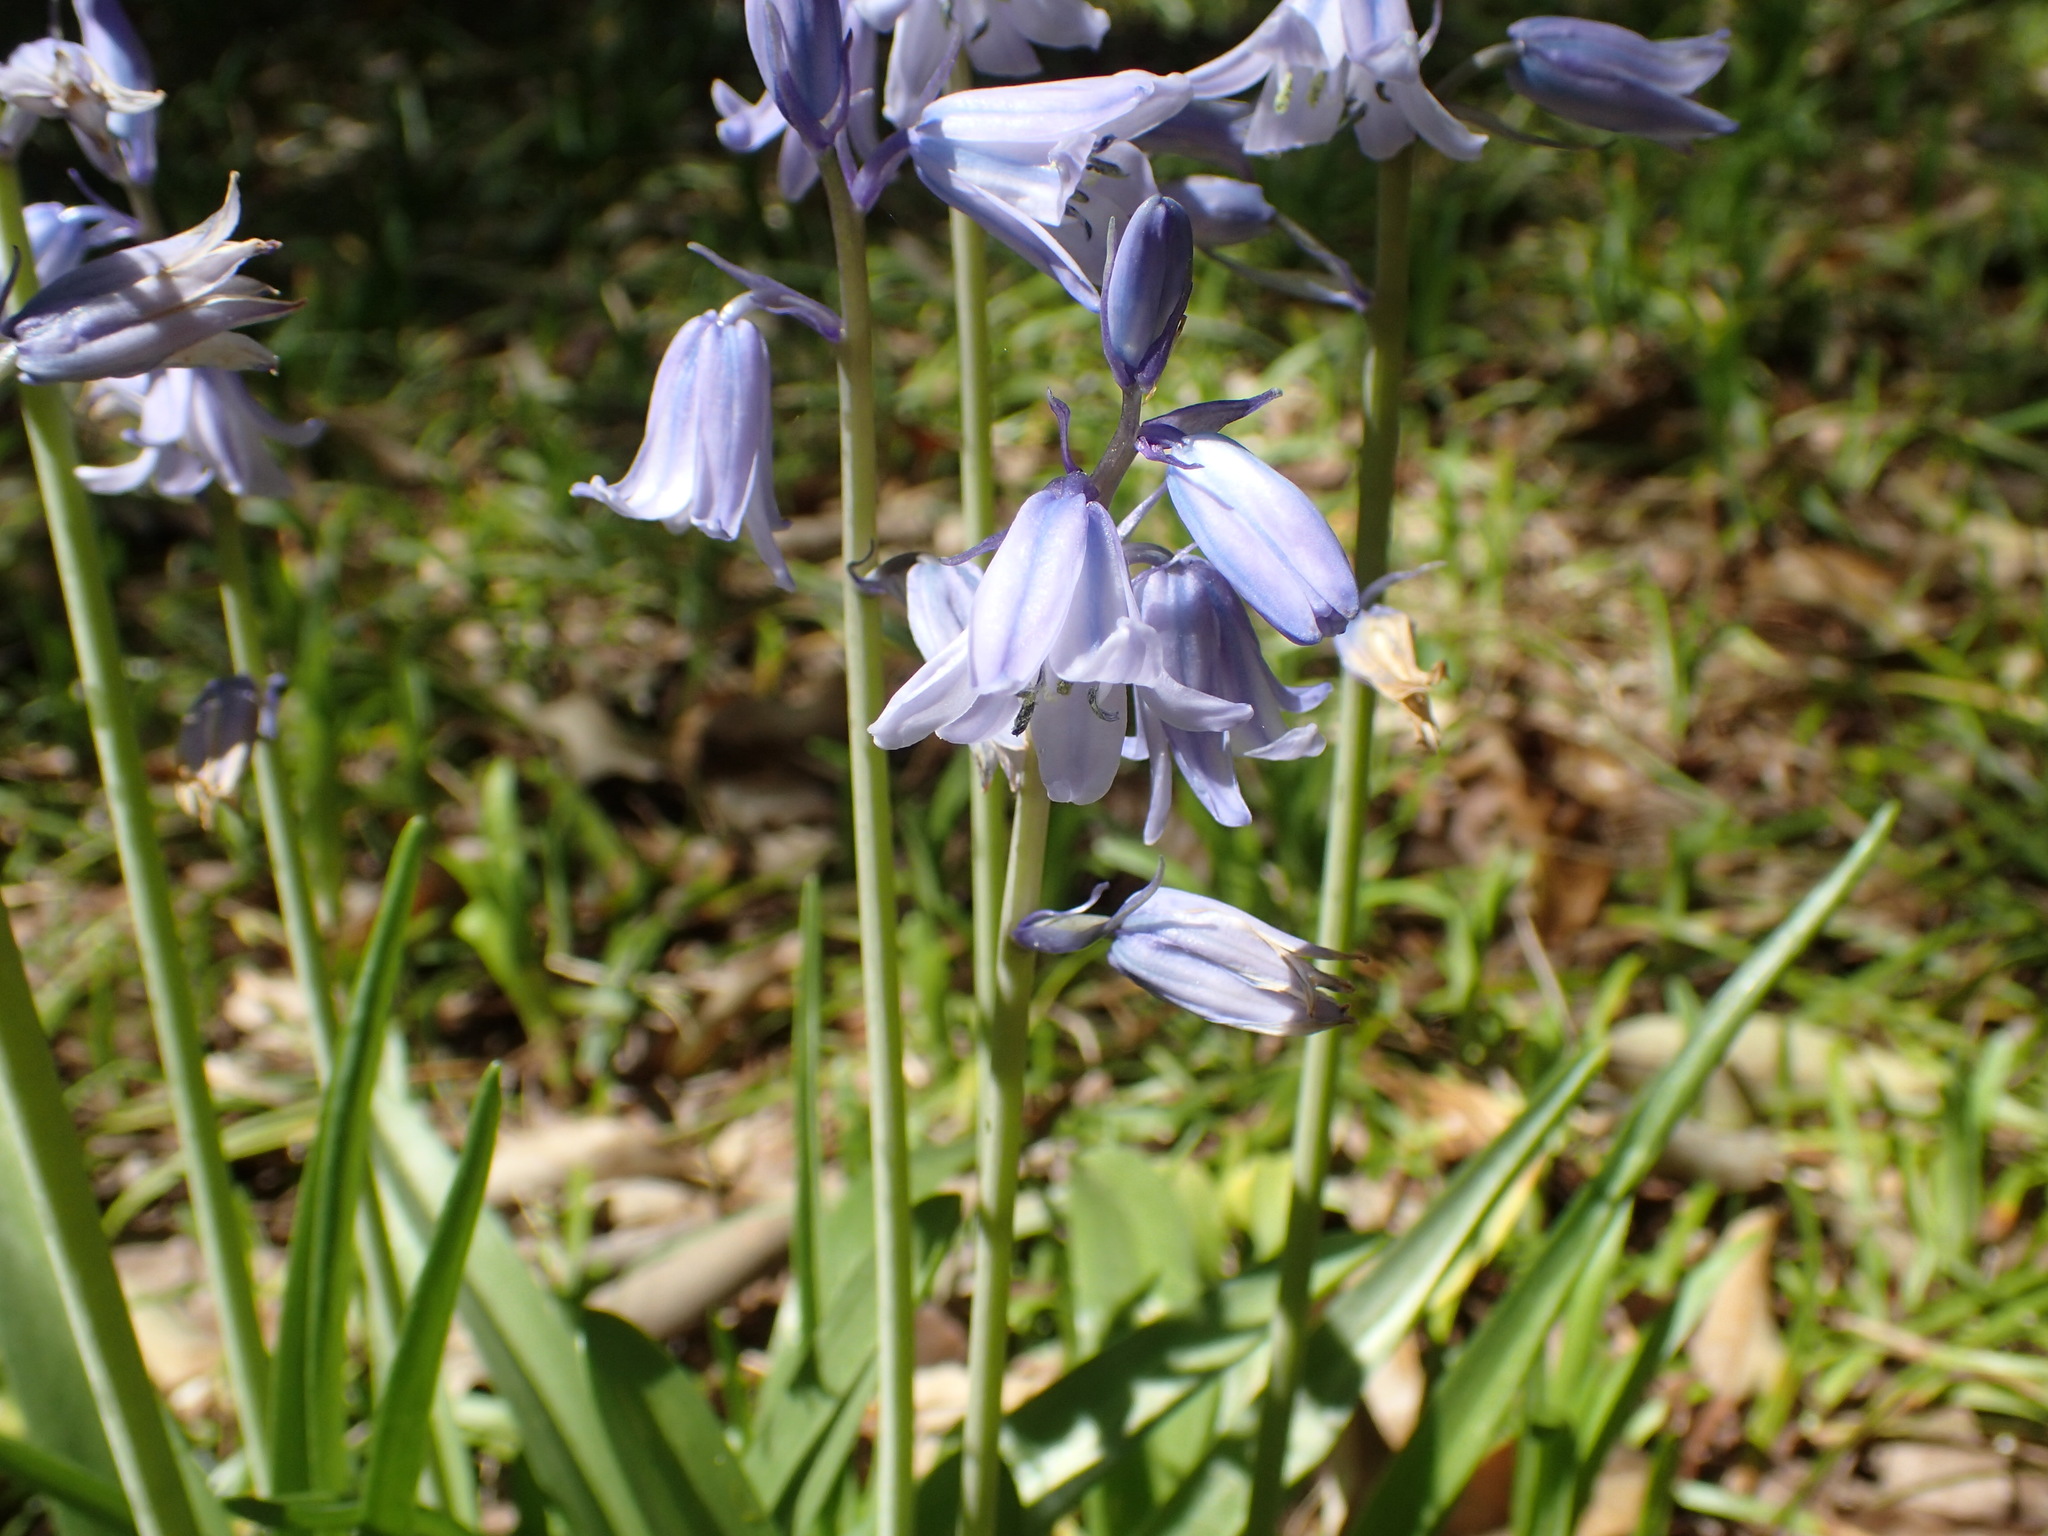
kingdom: Plantae
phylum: Tracheophyta
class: Liliopsida
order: Asparagales
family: Asparagaceae
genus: Hyacinthoides
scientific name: Hyacinthoides hispanica
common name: Spanish bluebell
